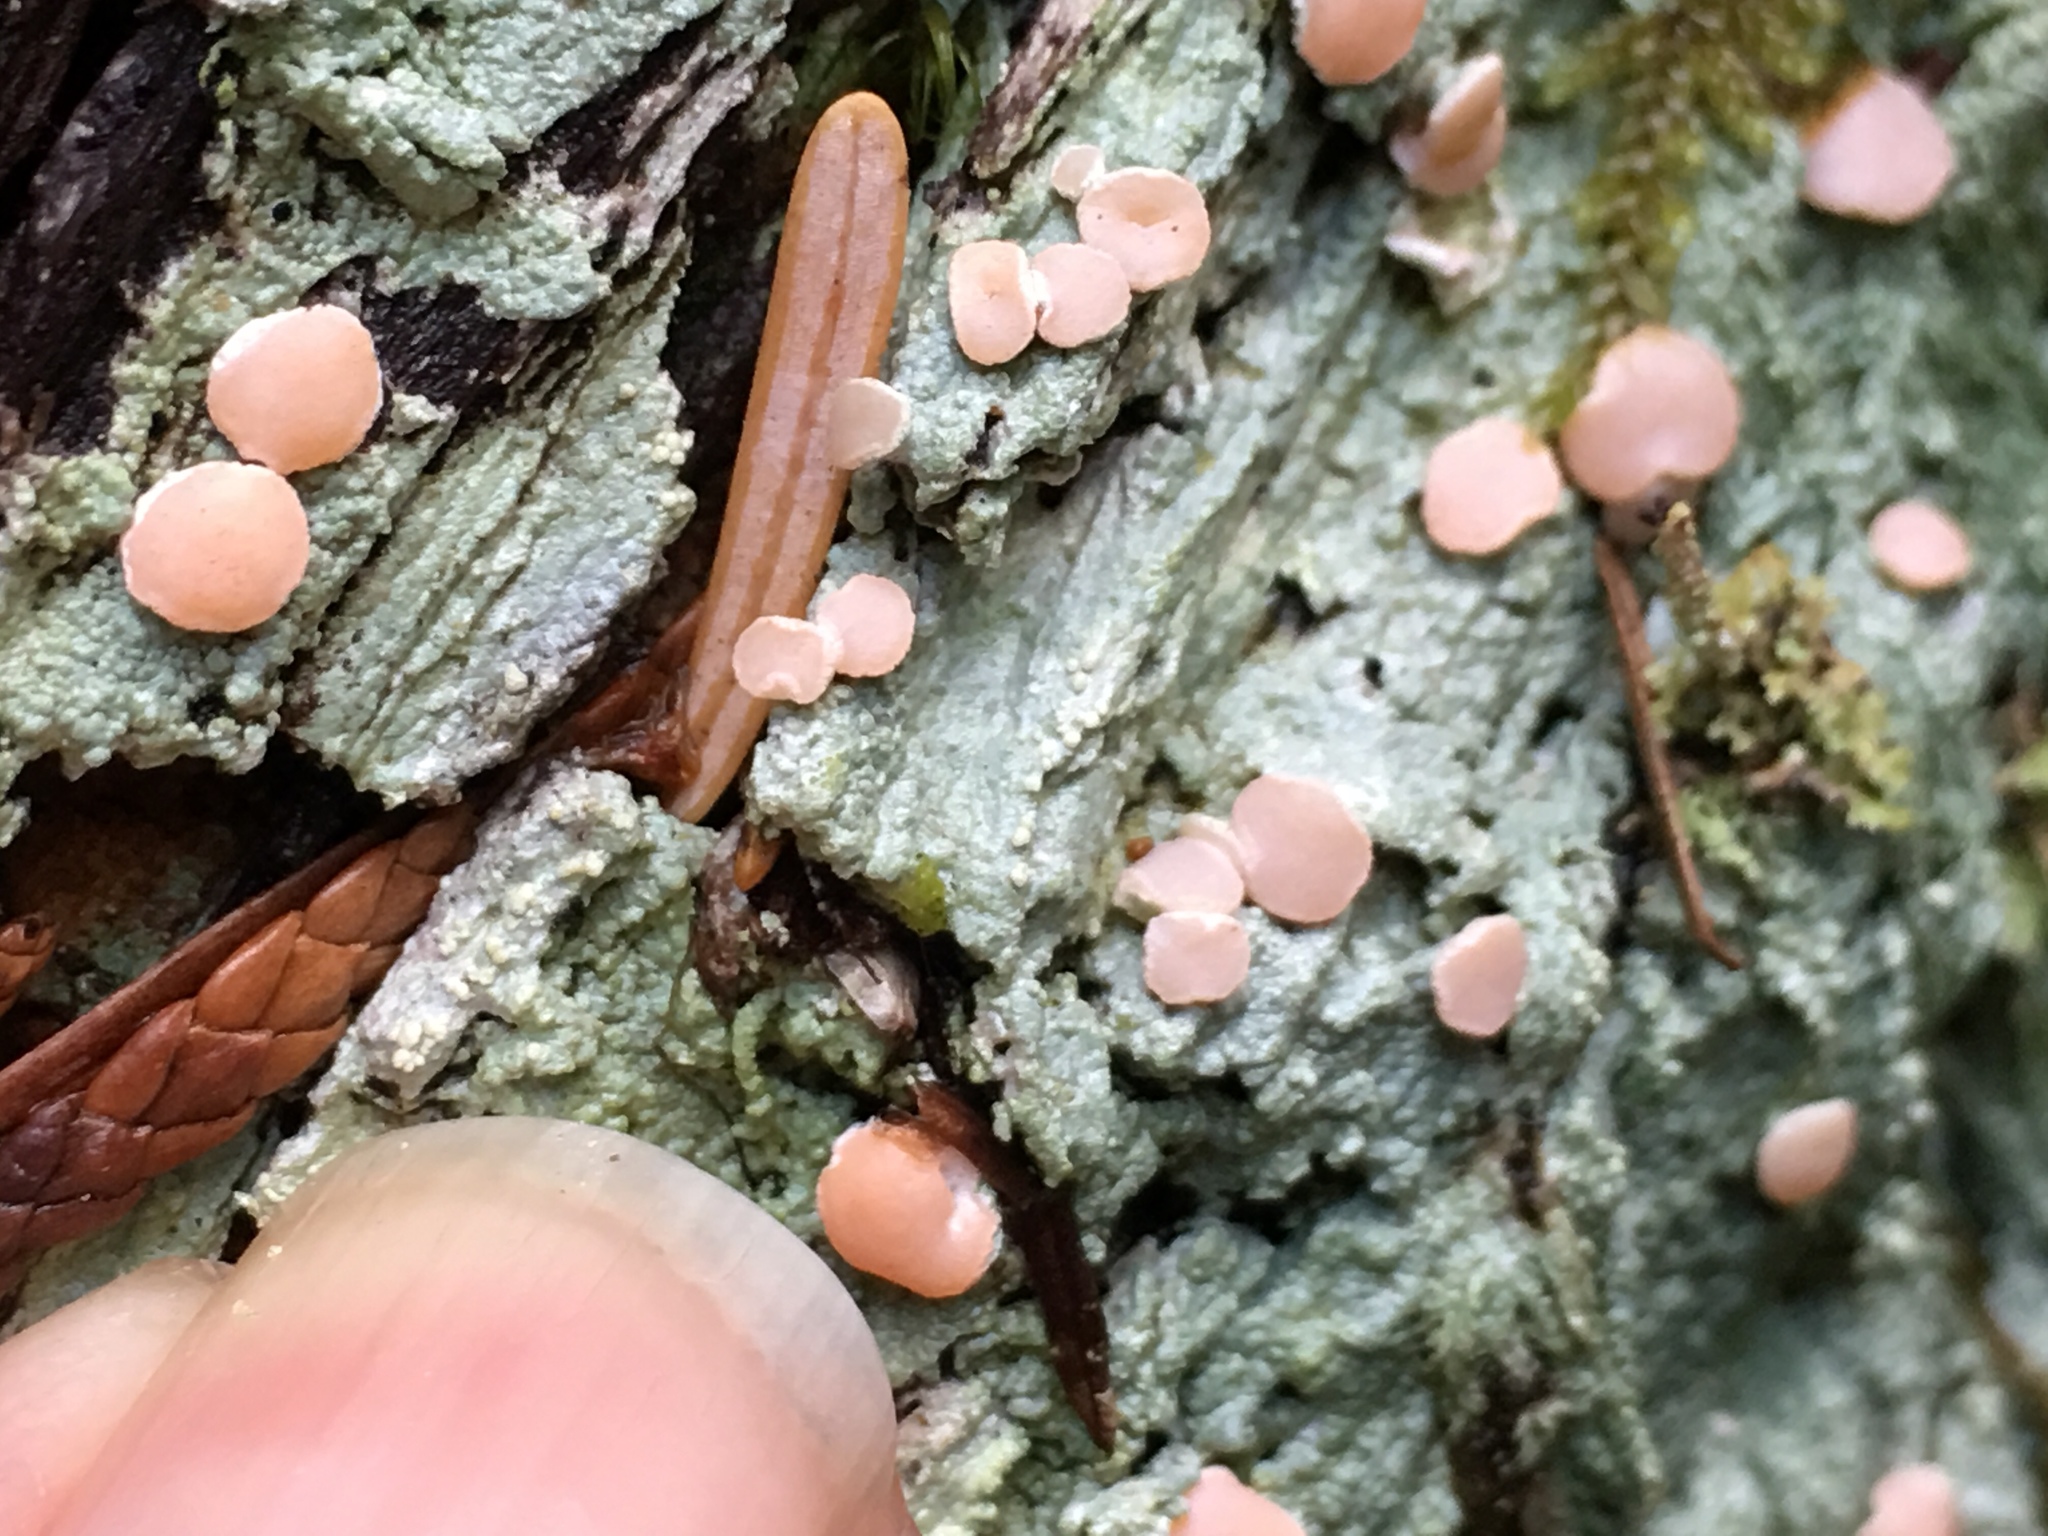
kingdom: Fungi
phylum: Ascomycota
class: Lecanoromycetes
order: Pertusariales
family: Icmadophilaceae
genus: Icmadophila
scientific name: Icmadophila ericetorum
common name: Candy lichen
